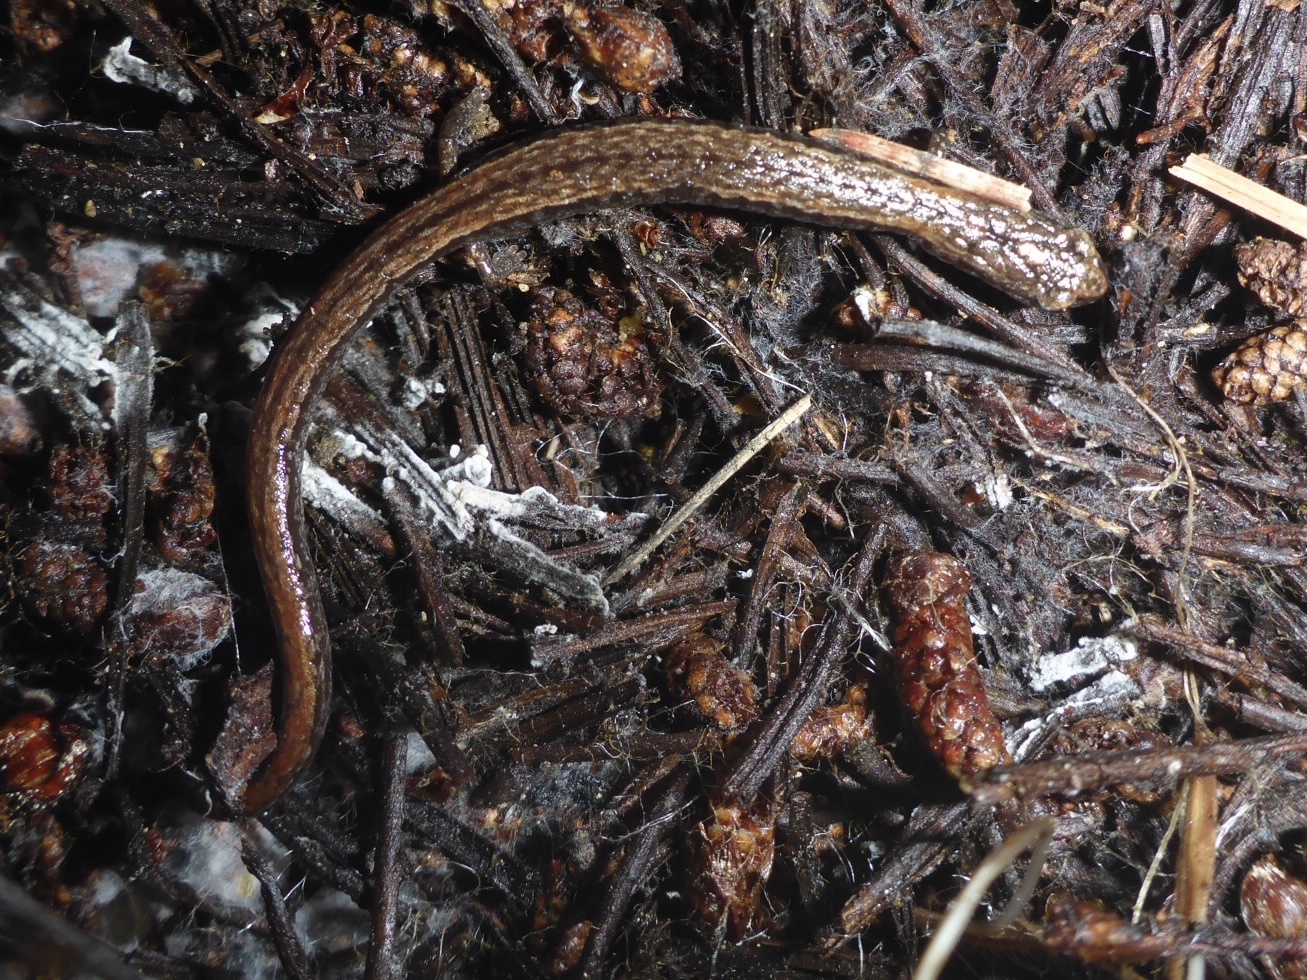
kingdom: Animalia
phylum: Chordata
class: Amphibia
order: Caudata
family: Plethodontidae
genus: Batrachoseps
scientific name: Batrachoseps attenuatus
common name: California slender salamander
